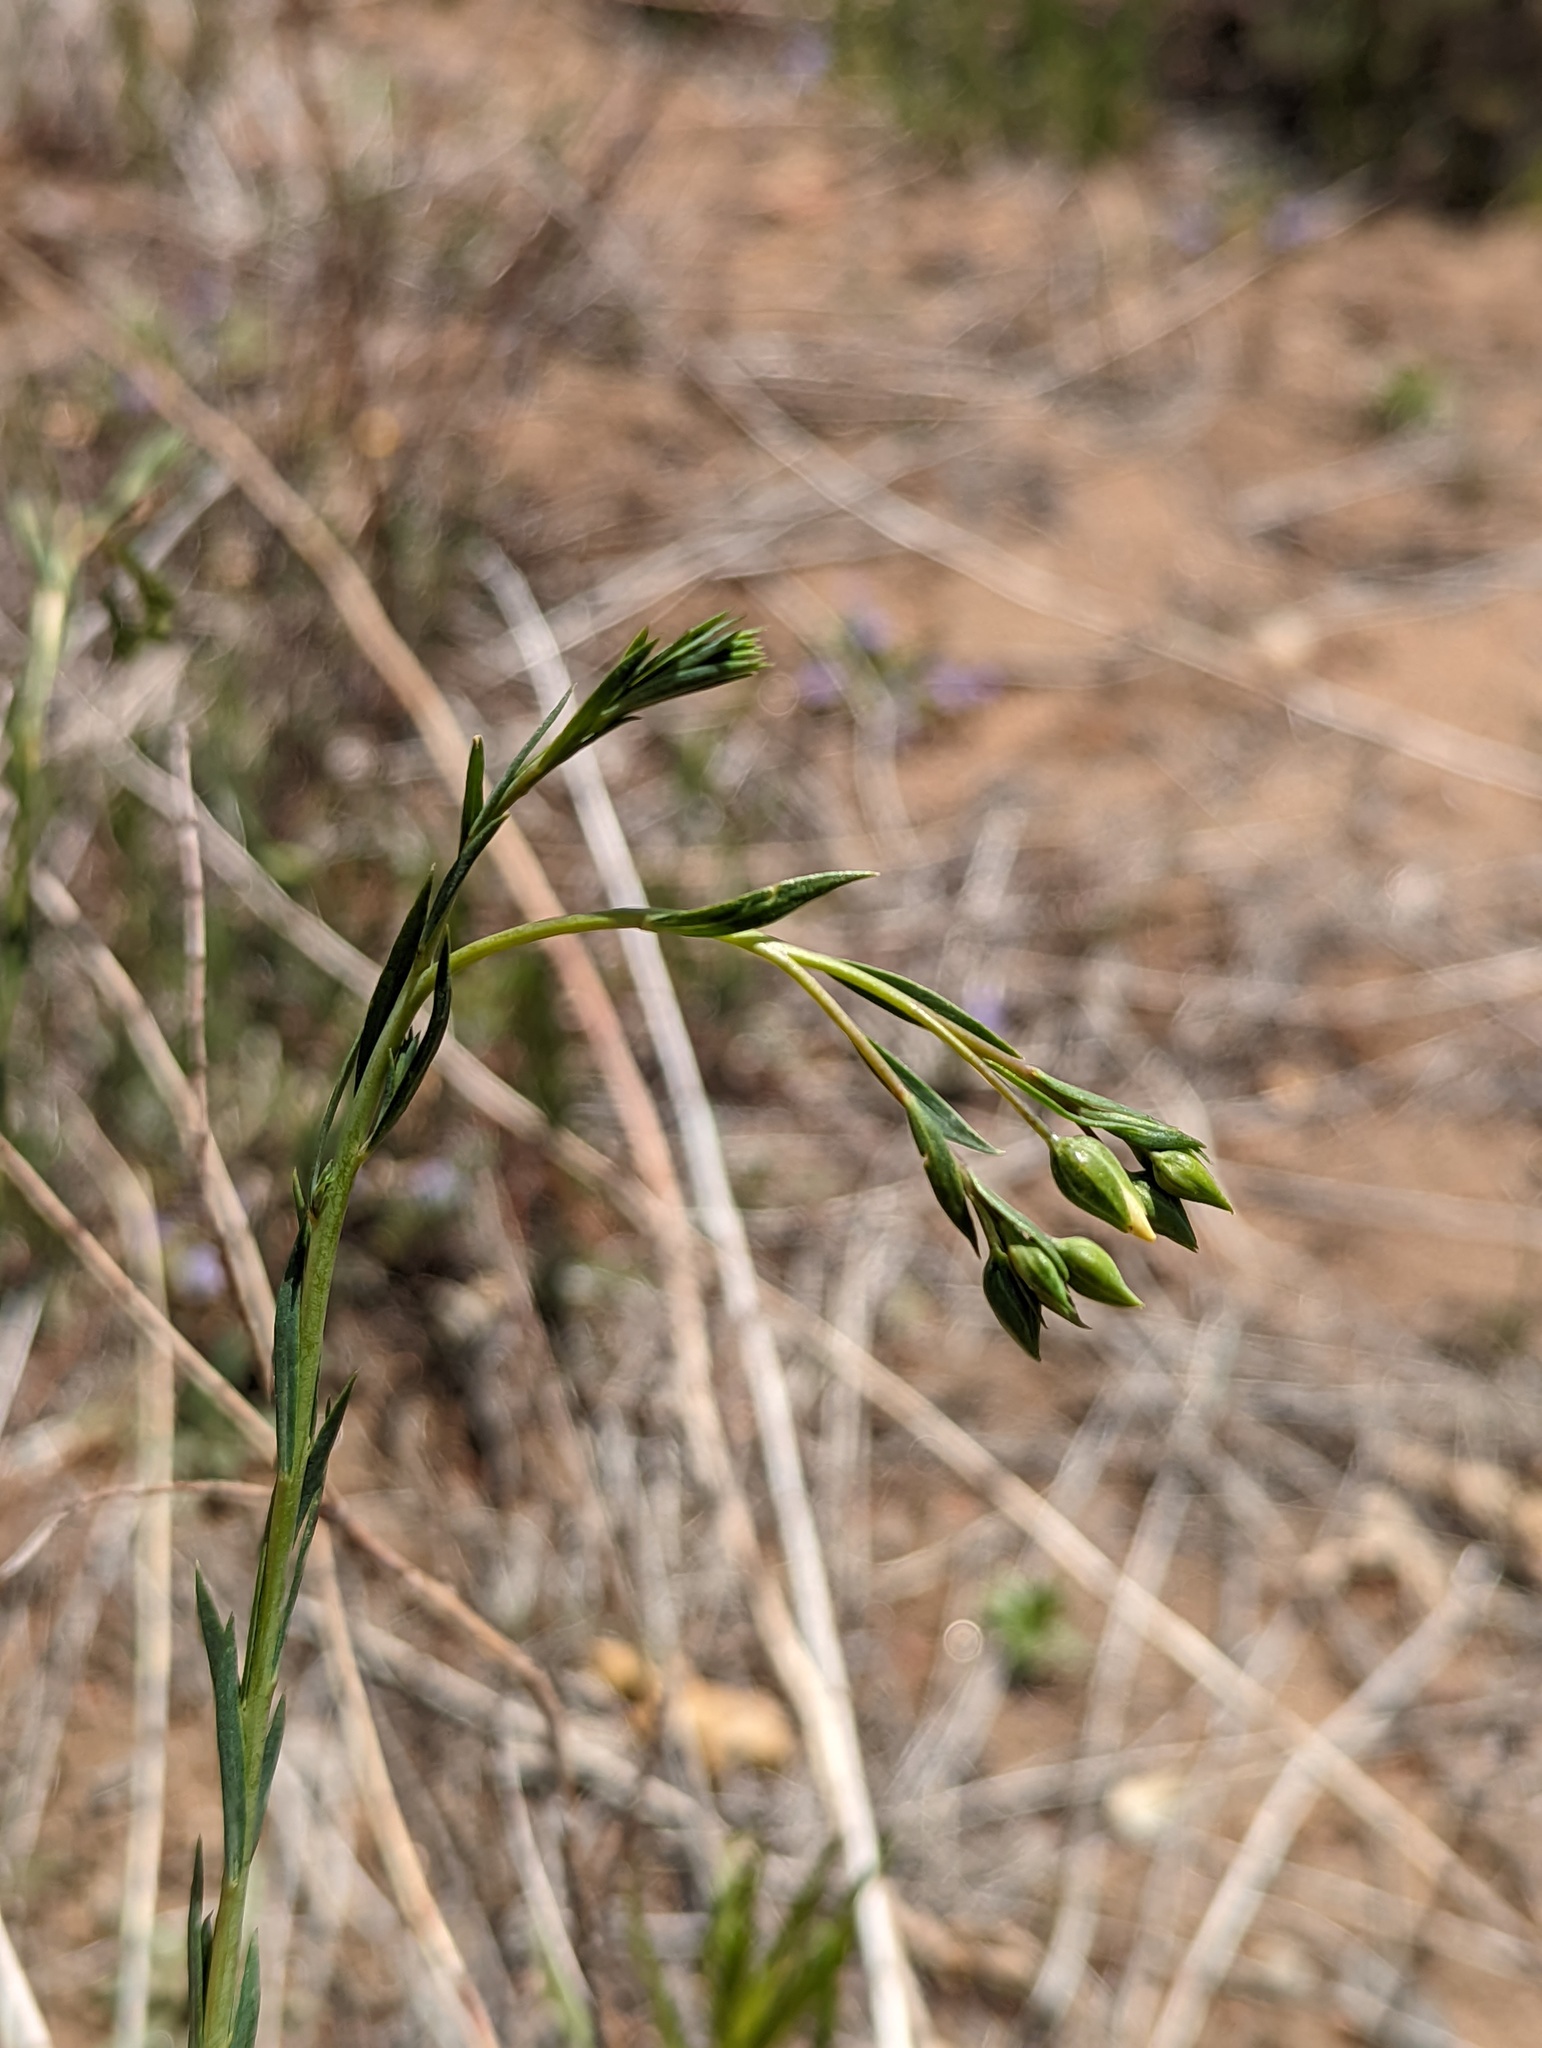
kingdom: Plantae
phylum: Tracheophyta
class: Magnoliopsida
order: Malpighiales
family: Linaceae
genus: Linum
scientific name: Linum lewisii
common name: Prairie flax
